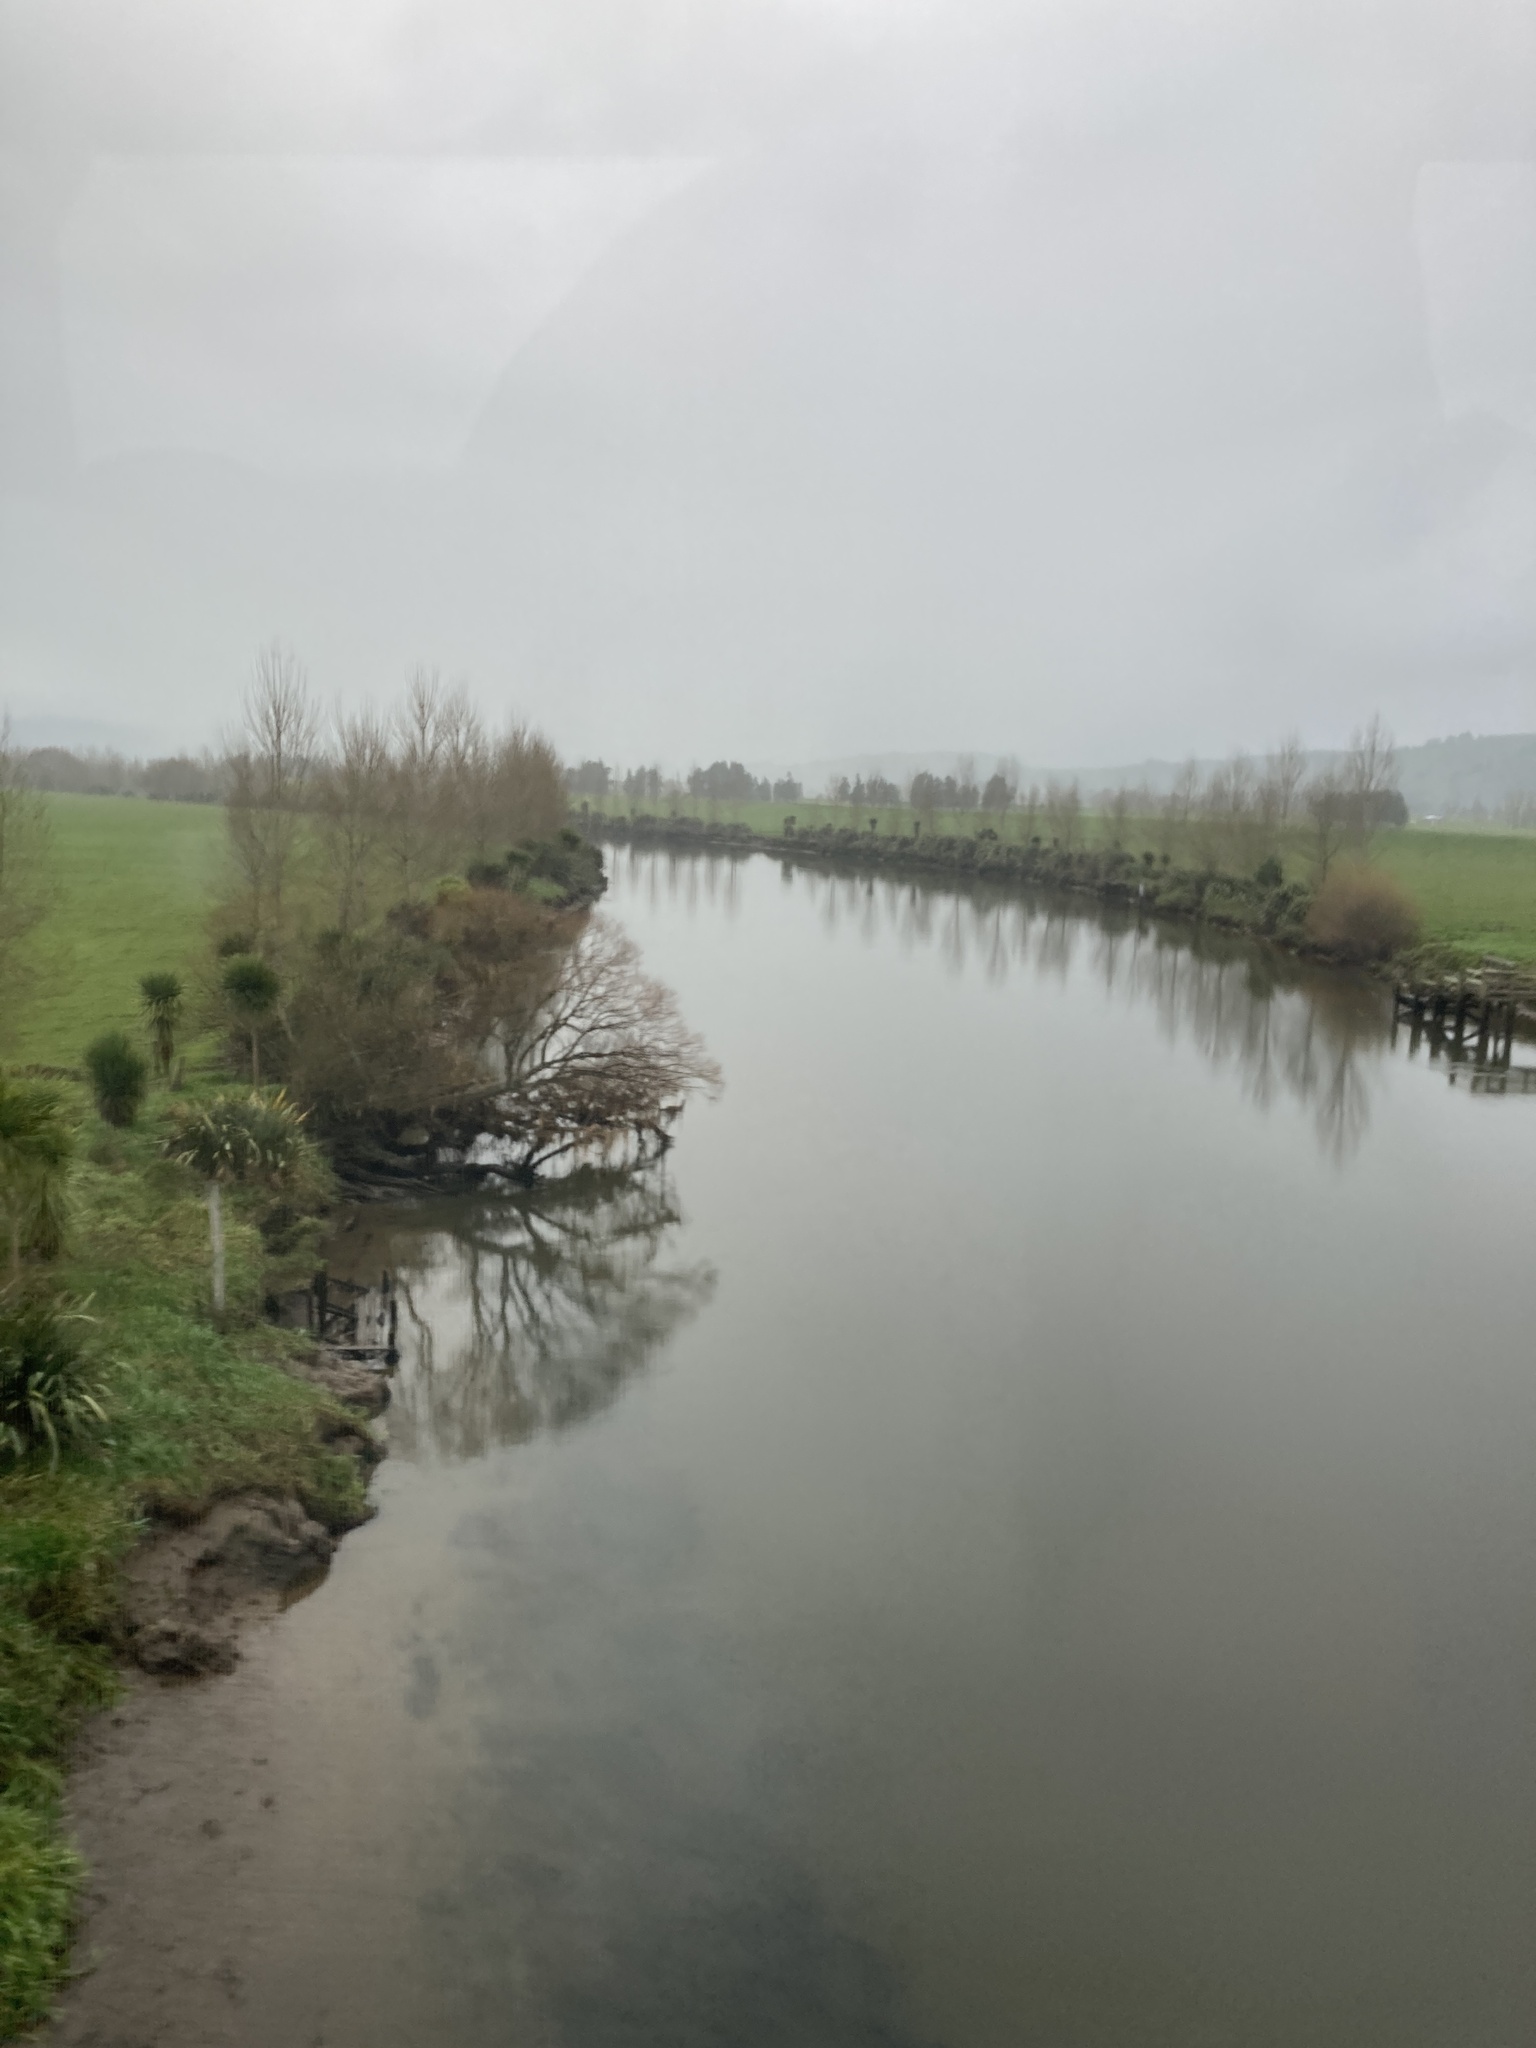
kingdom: Plantae
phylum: Tracheophyta
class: Liliopsida
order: Asparagales
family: Asparagaceae
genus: Cordyline
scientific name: Cordyline australis
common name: Cabbage-palm
